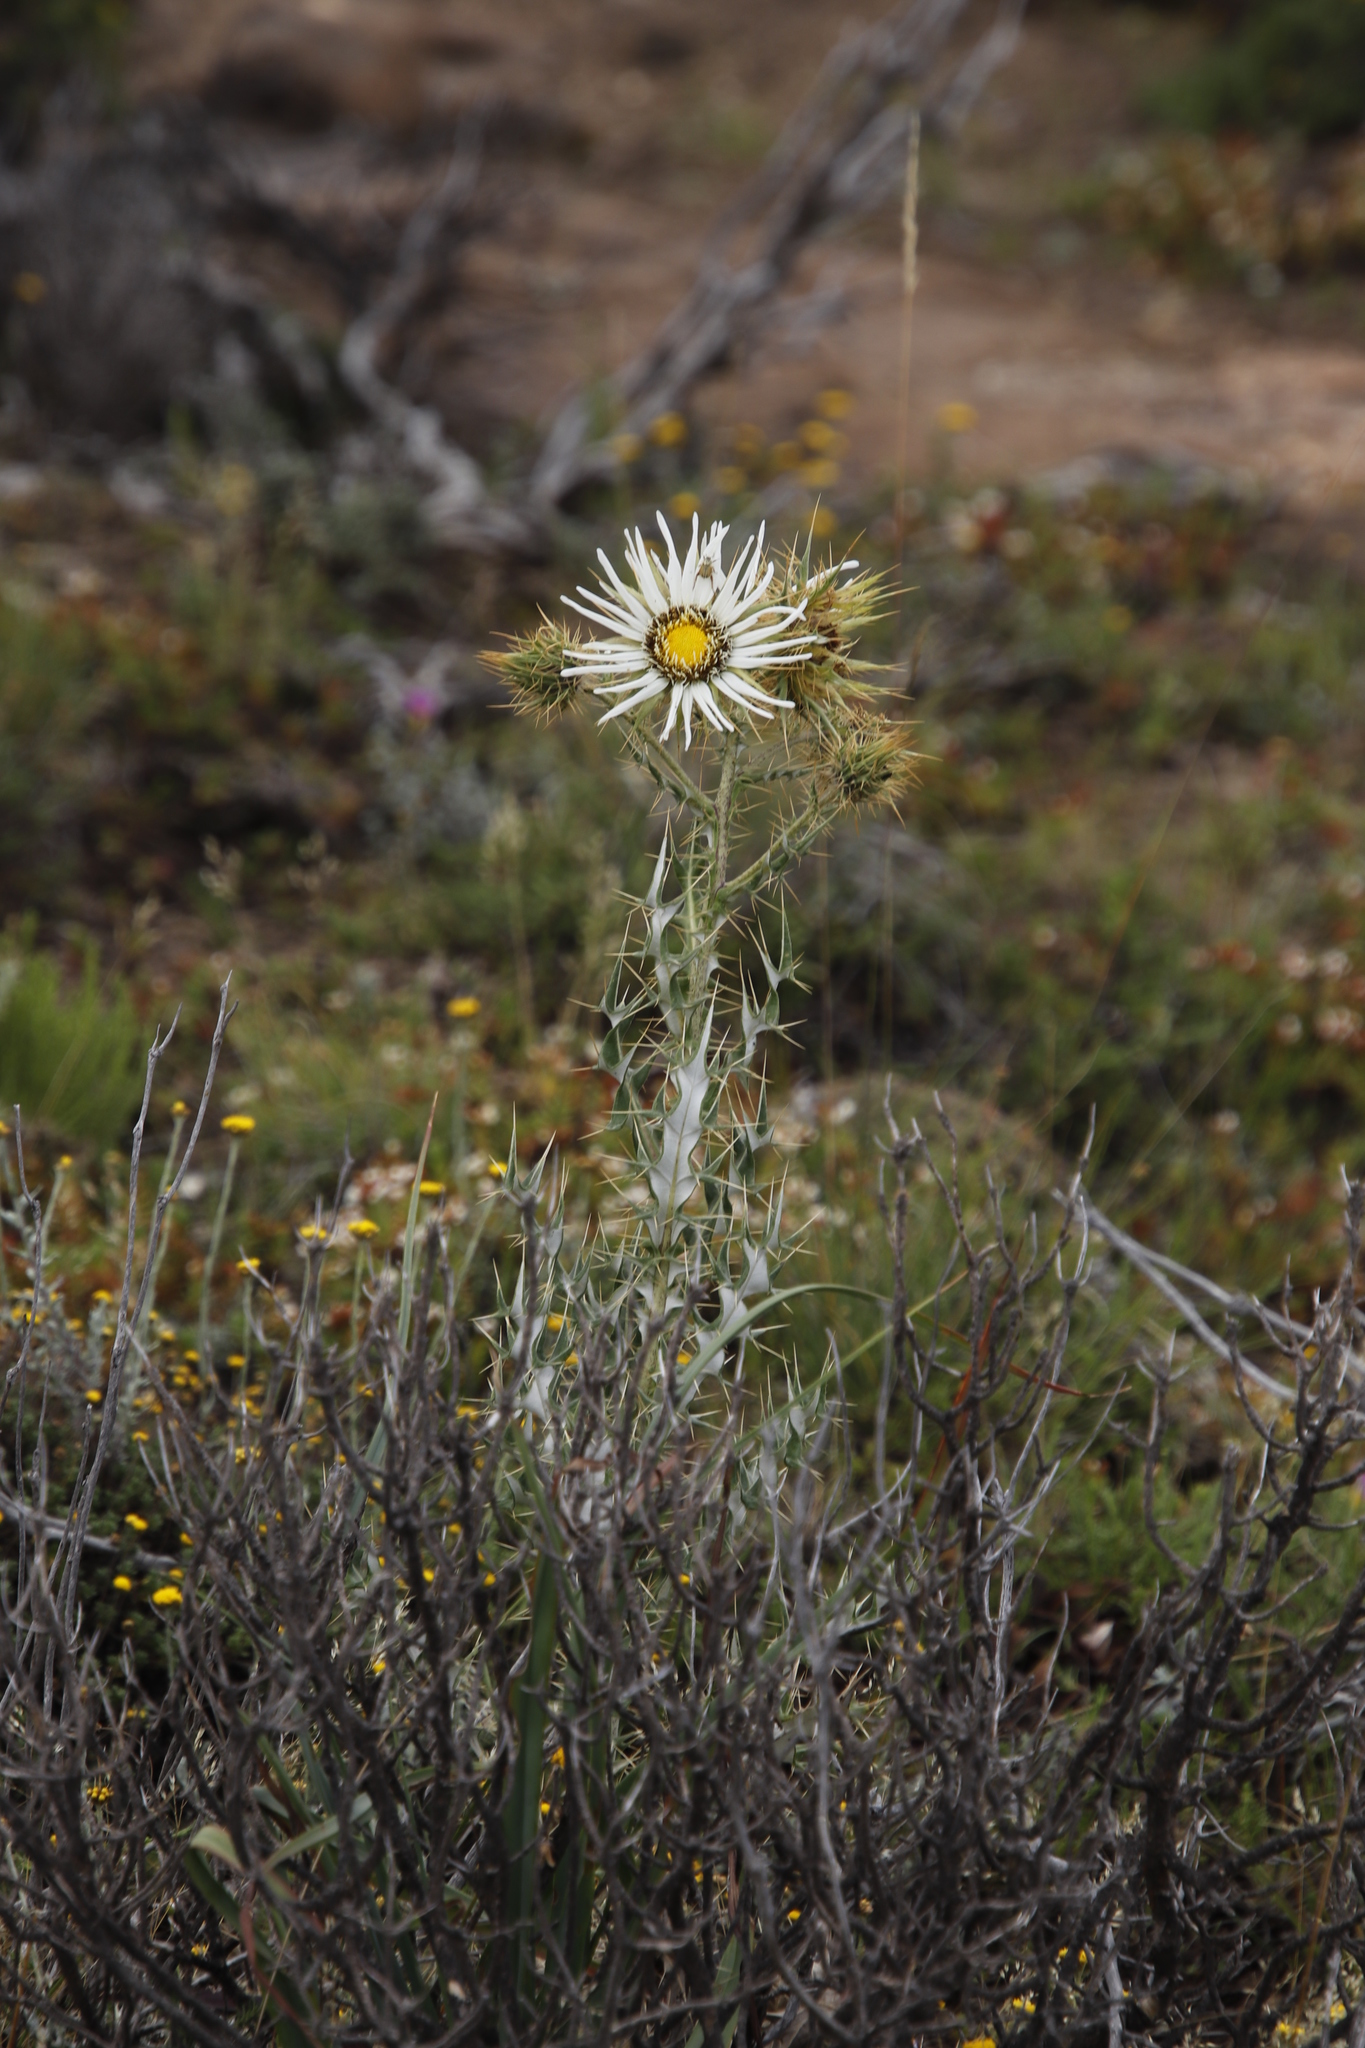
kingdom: Plantae
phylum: Tracheophyta
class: Magnoliopsida
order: Asterales
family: Asteraceae
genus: Berkheya
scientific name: Berkheya cirsiifolia
